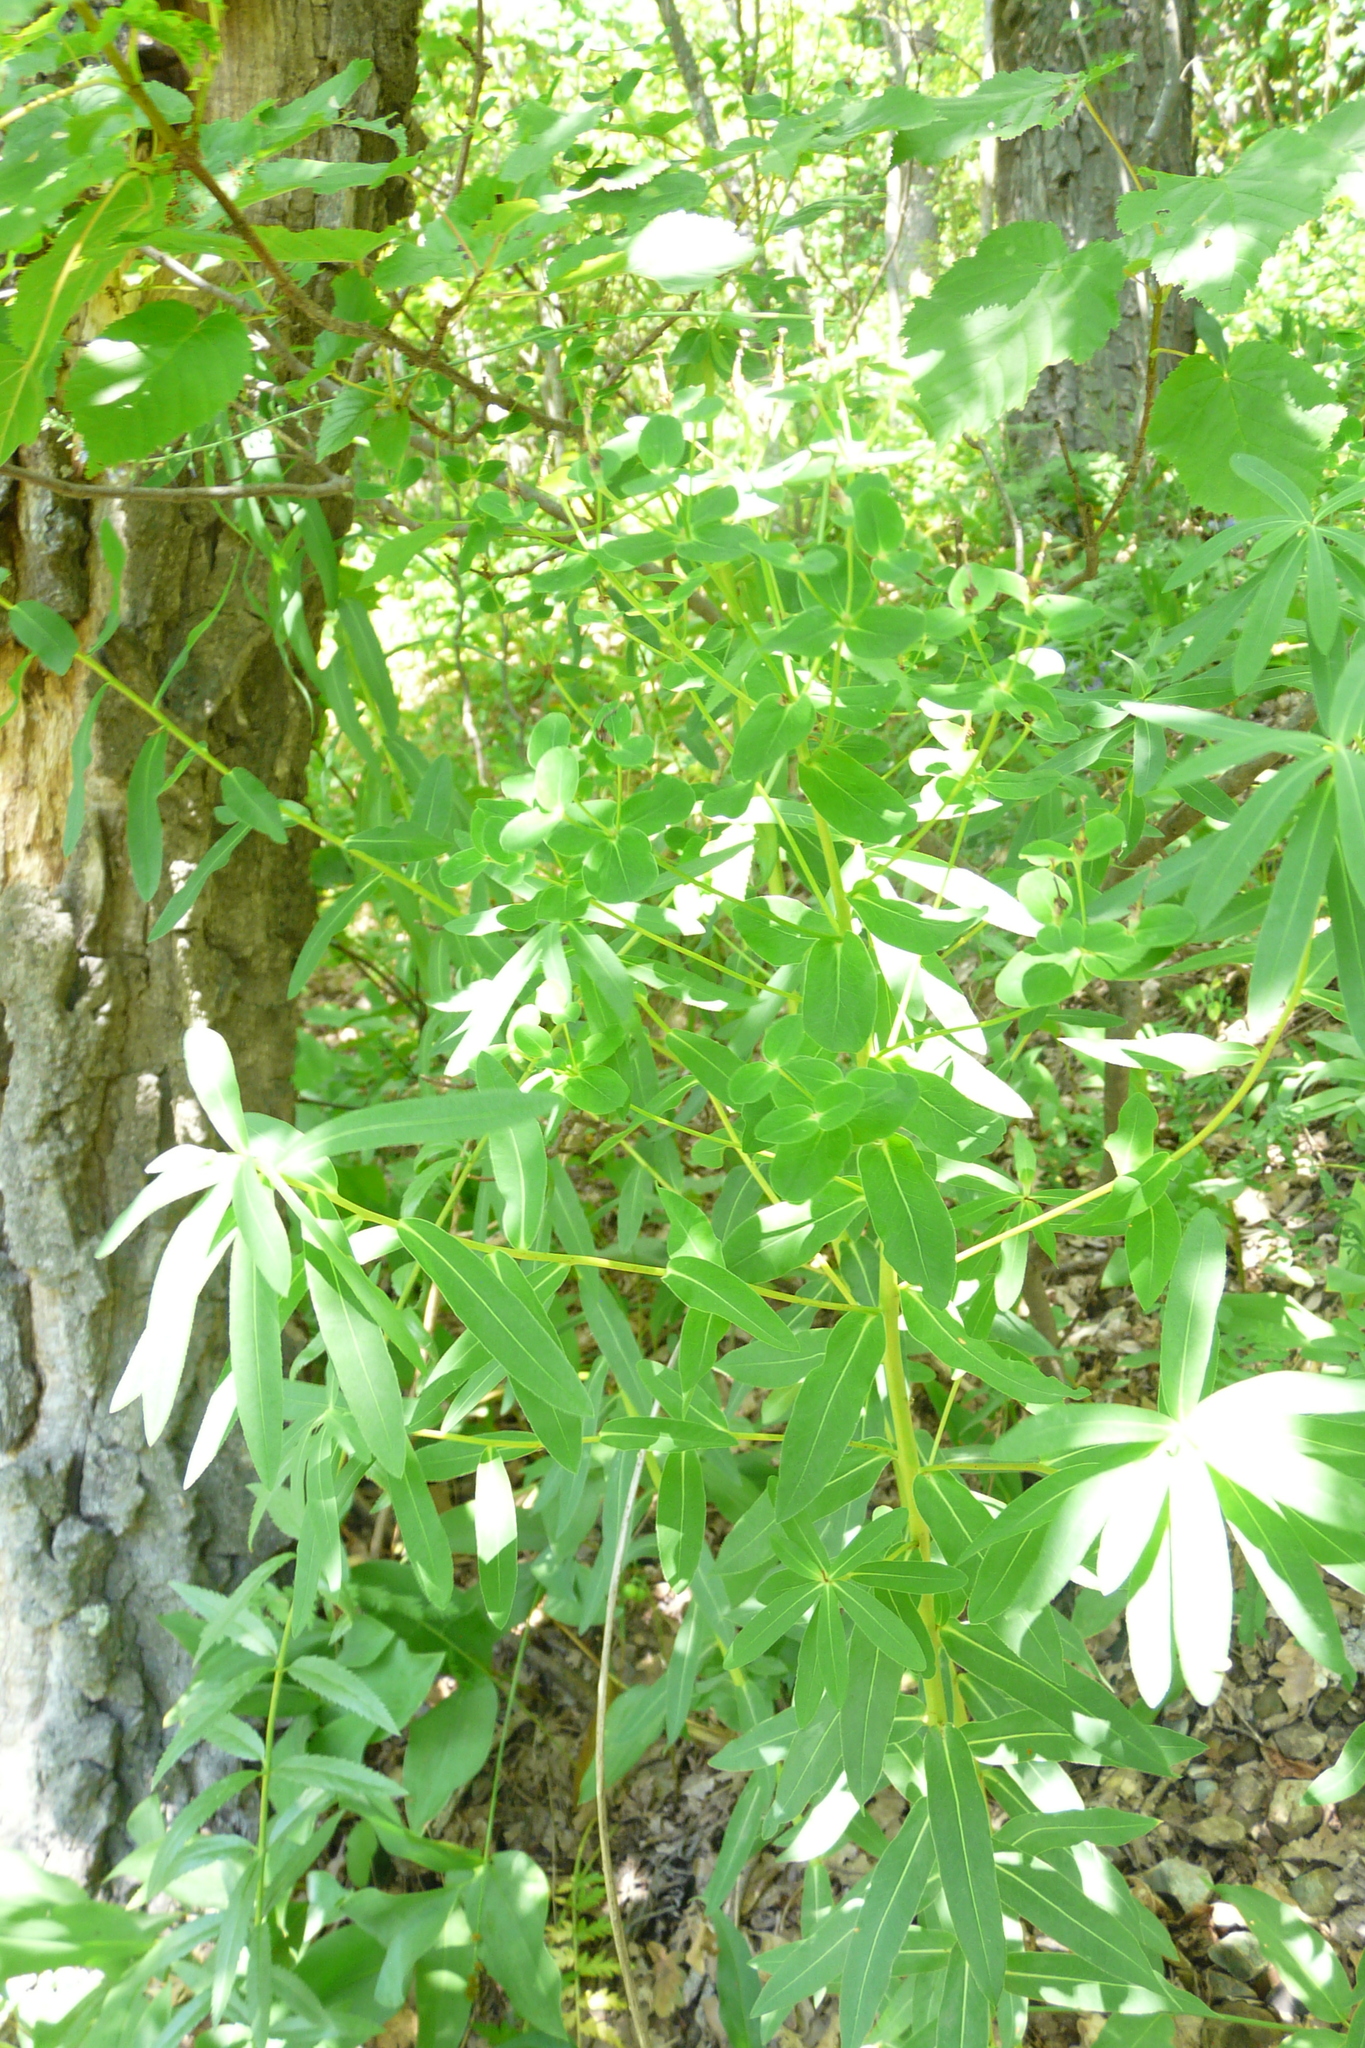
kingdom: Plantae
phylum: Tracheophyta
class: Magnoliopsida
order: Malpighiales
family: Euphorbiaceae
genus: Euphorbia
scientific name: Euphorbia semivillosa
